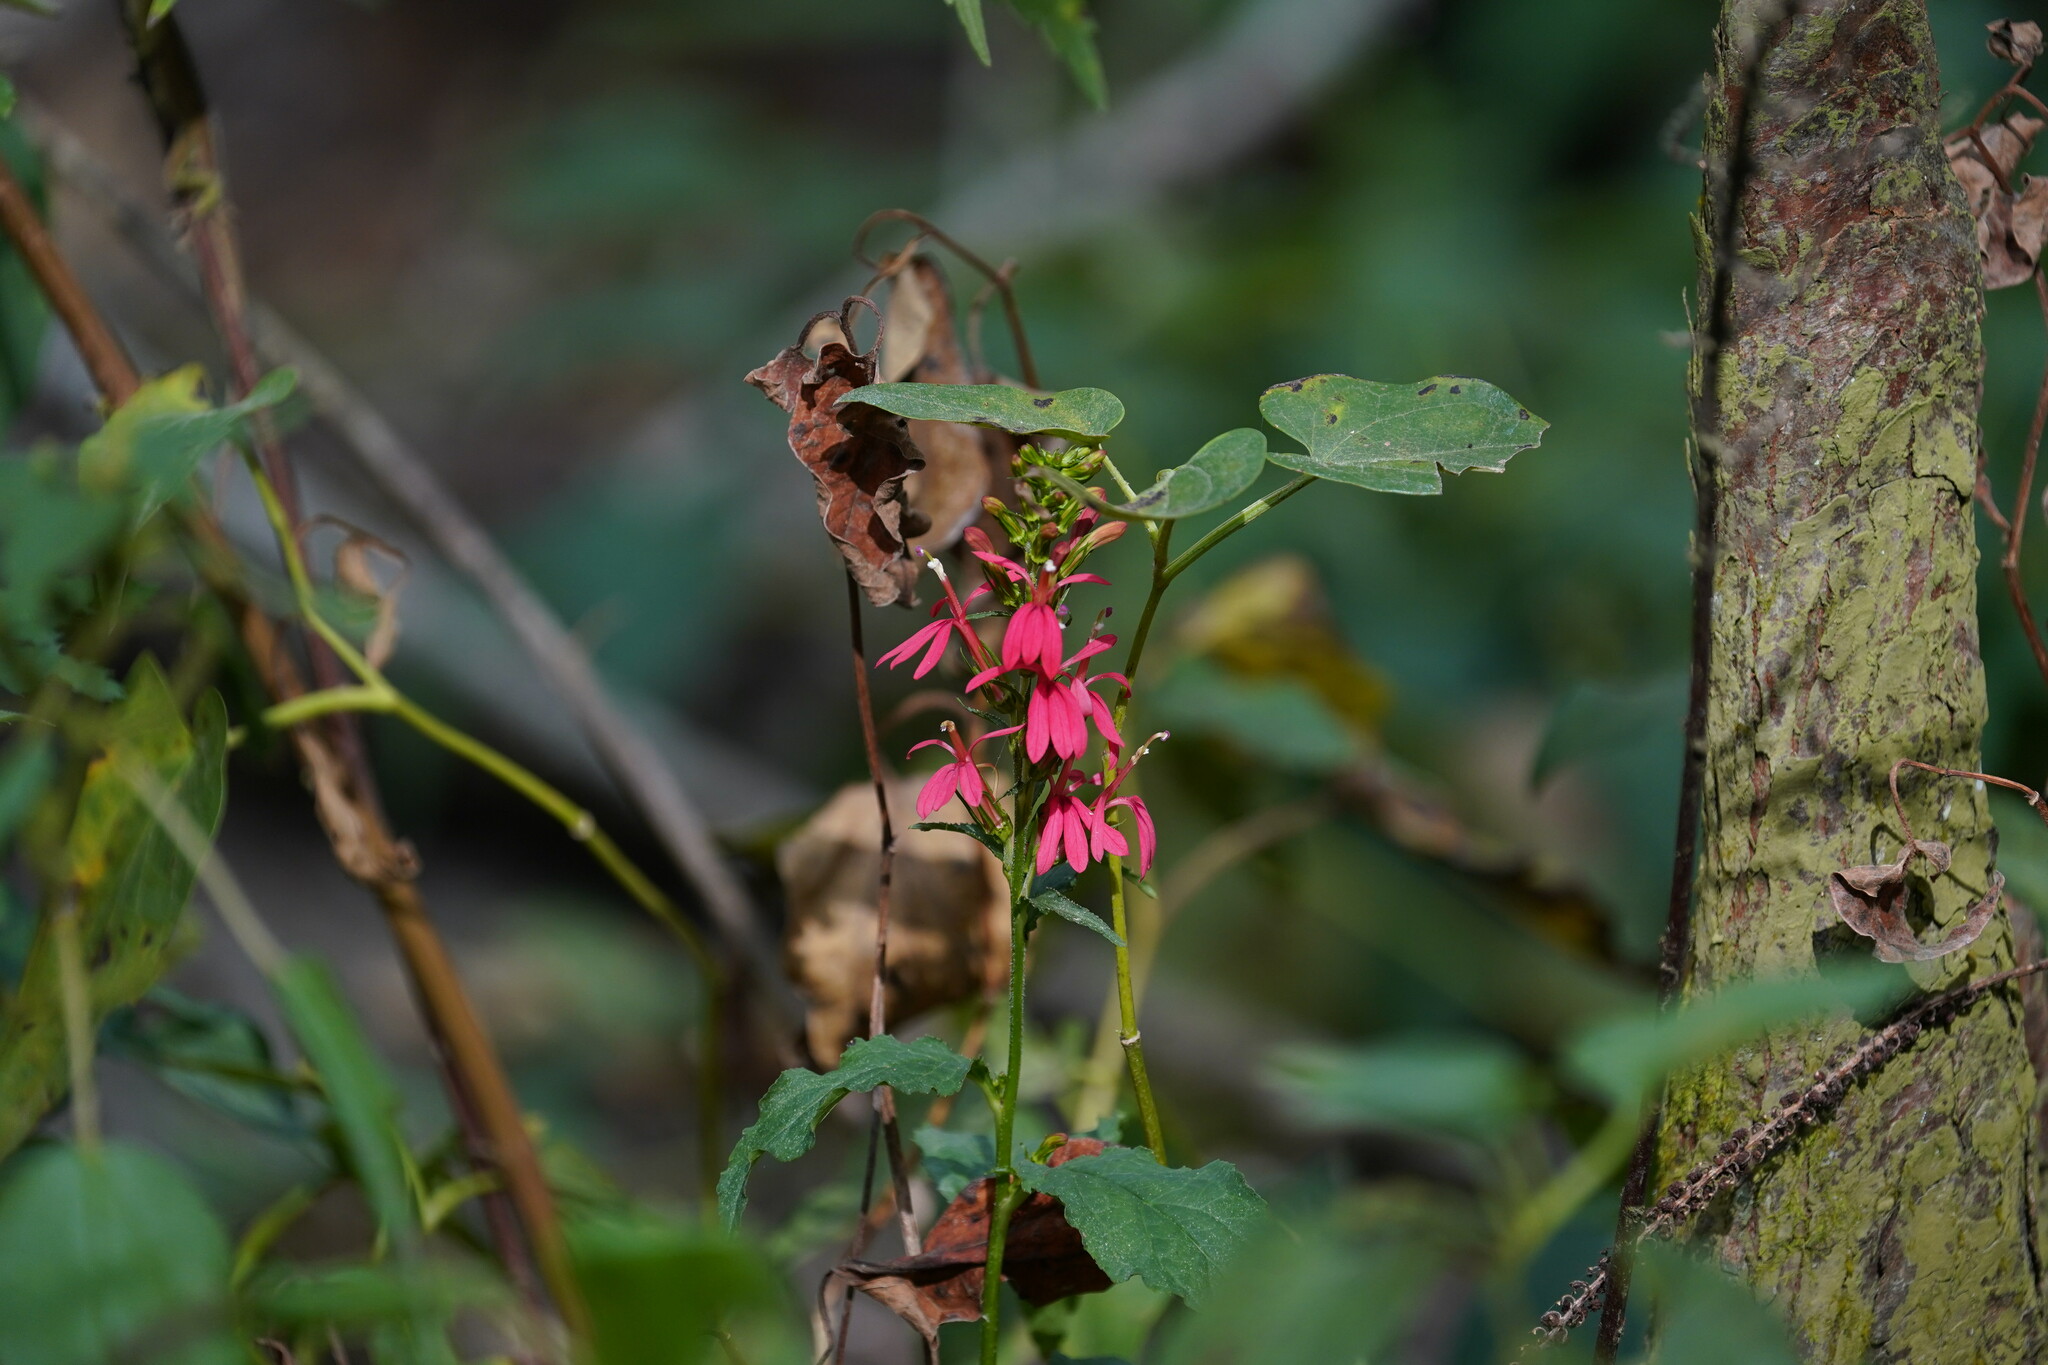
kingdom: Plantae
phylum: Tracheophyta
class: Magnoliopsida
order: Asterales
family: Campanulaceae
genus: Lobelia
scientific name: Lobelia cardinalis
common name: Cardinal flower
